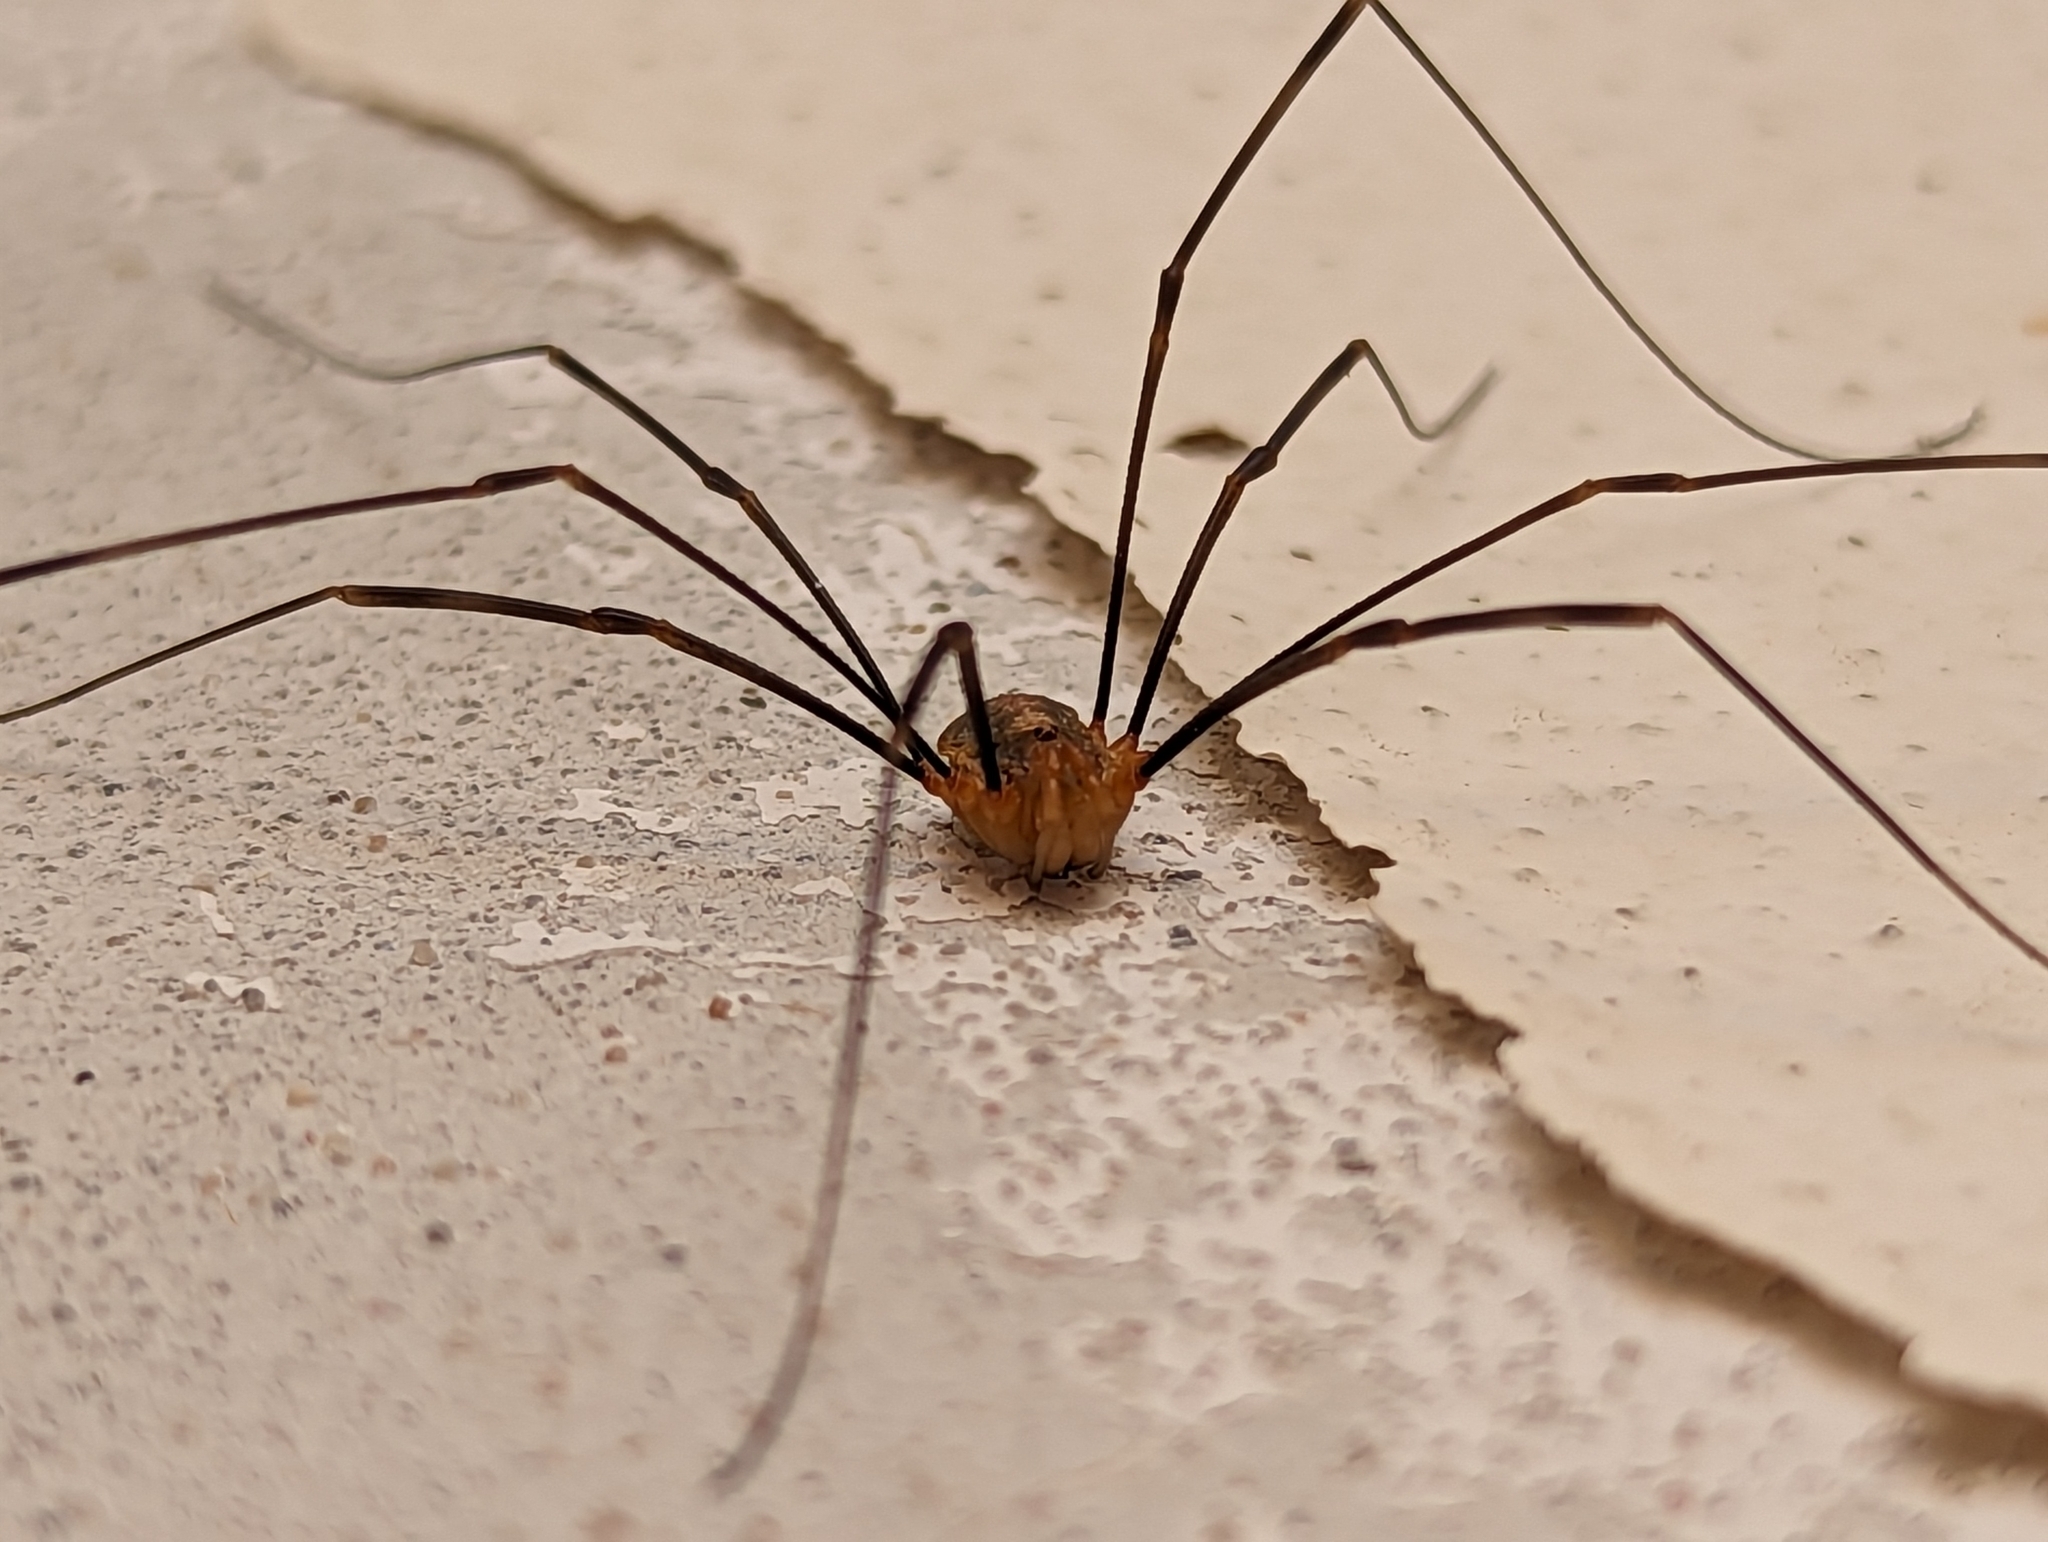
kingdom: Animalia
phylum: Arthropoda
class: Arachnida
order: Opiliones
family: Phalangiidae
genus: Opilio
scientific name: Opilio canestrinii
